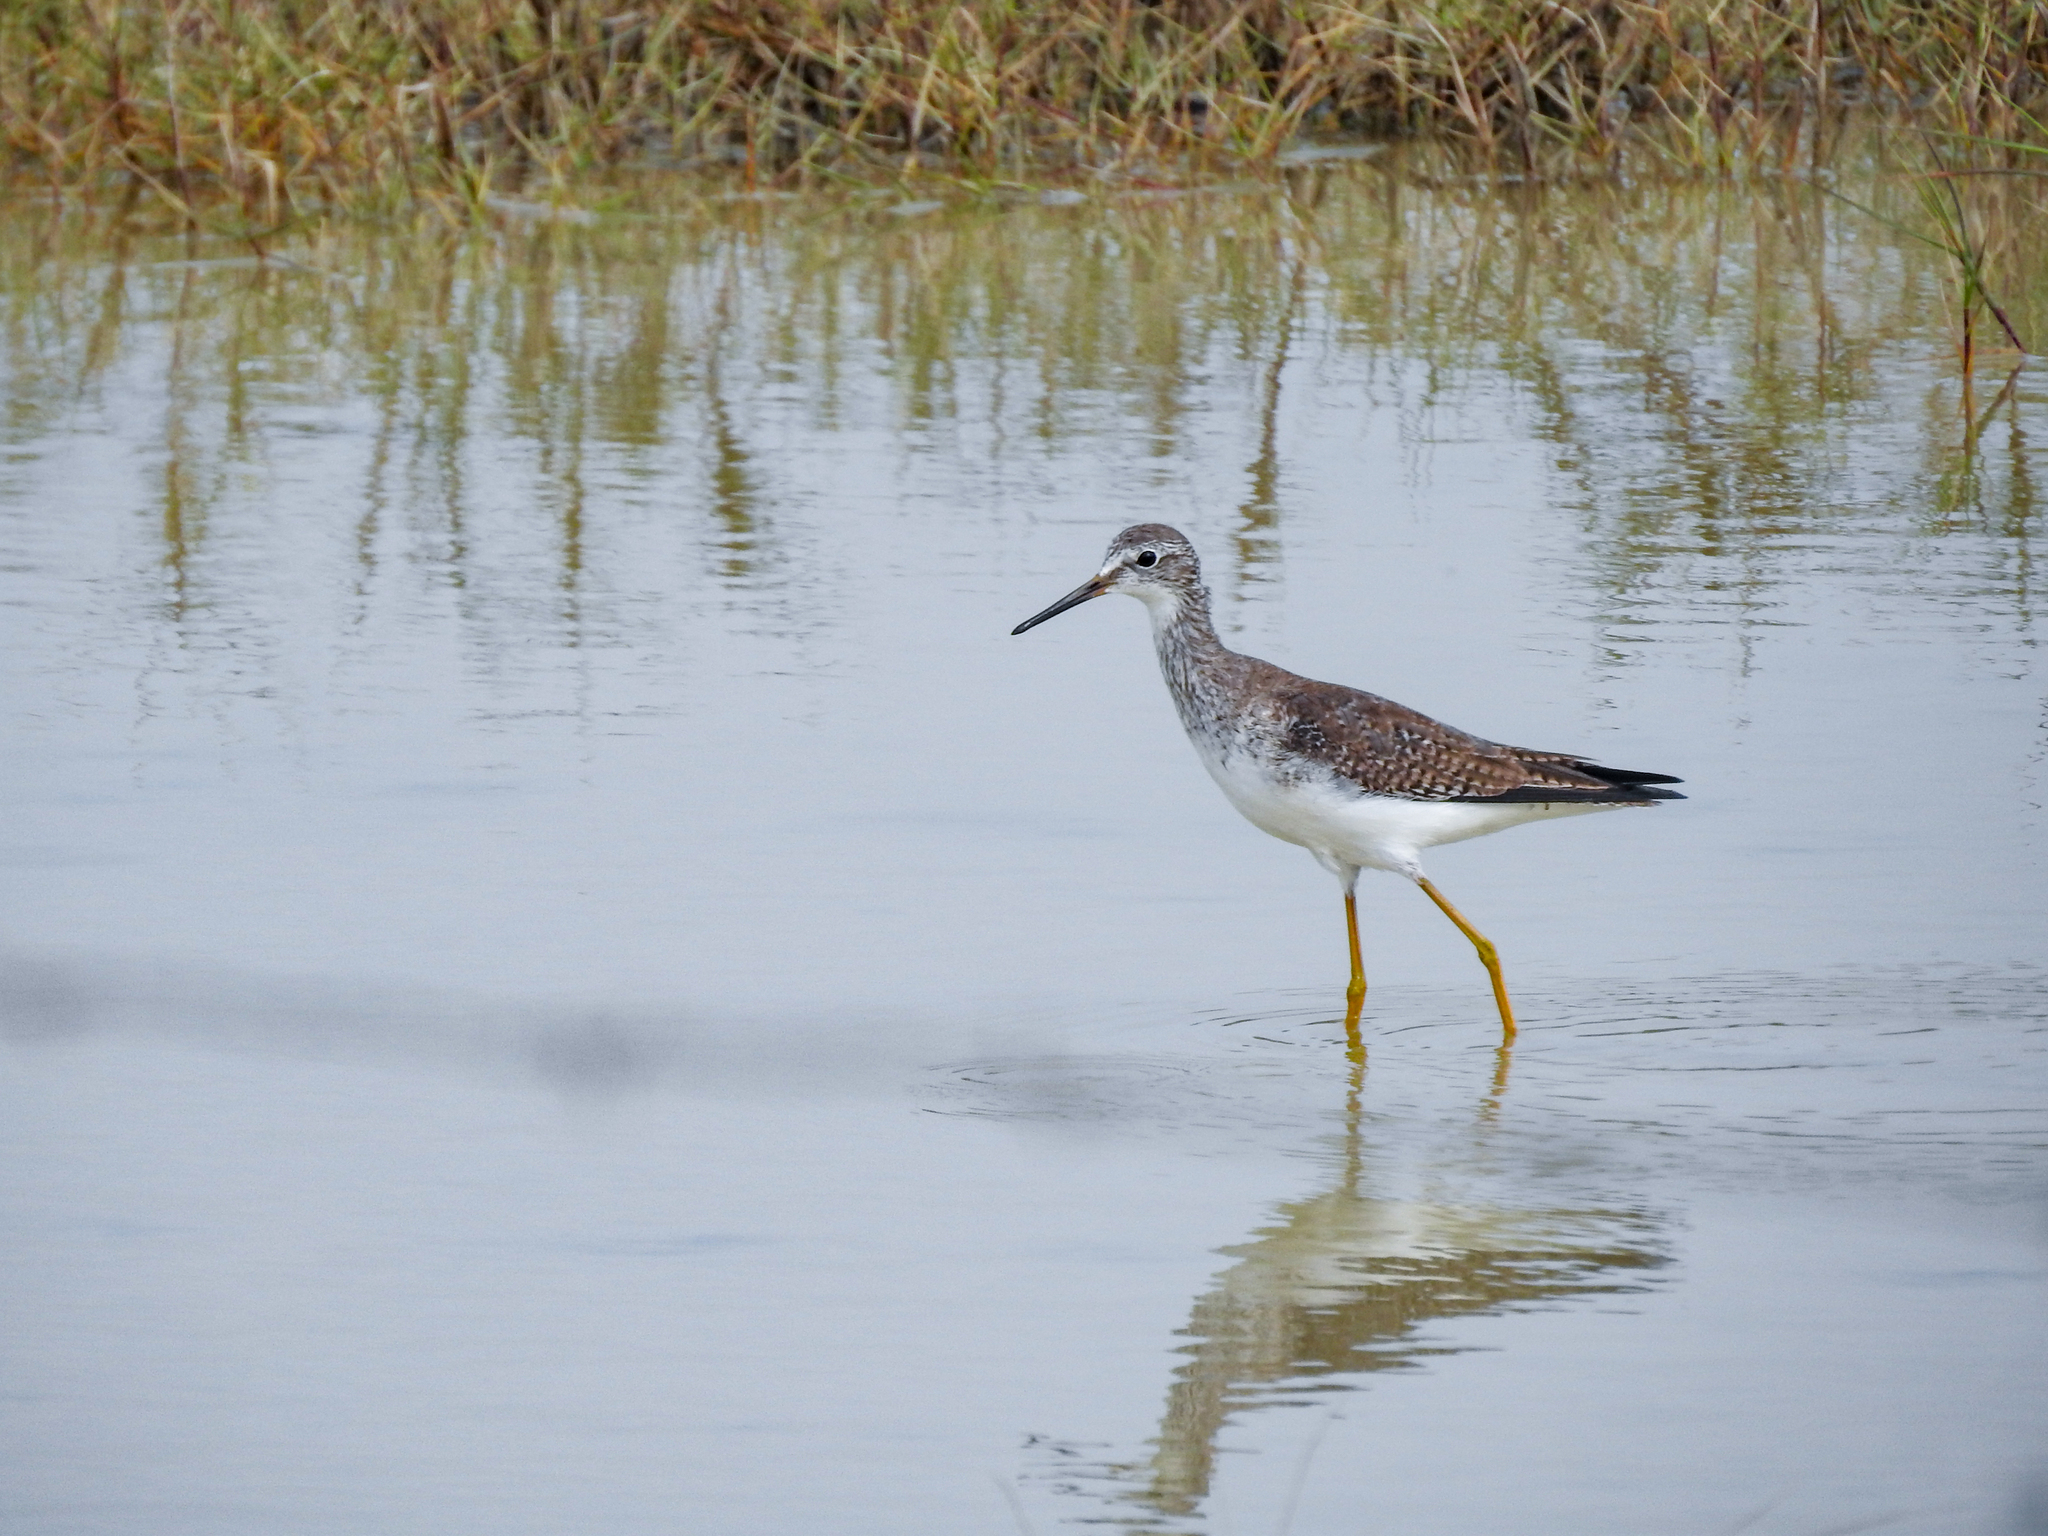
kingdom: Animalia
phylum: Chordata
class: Aves
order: Charadriiformes
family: Scolopacidae
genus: Tringa
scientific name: Tringa melanoleuca
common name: Greater yellowlegs
